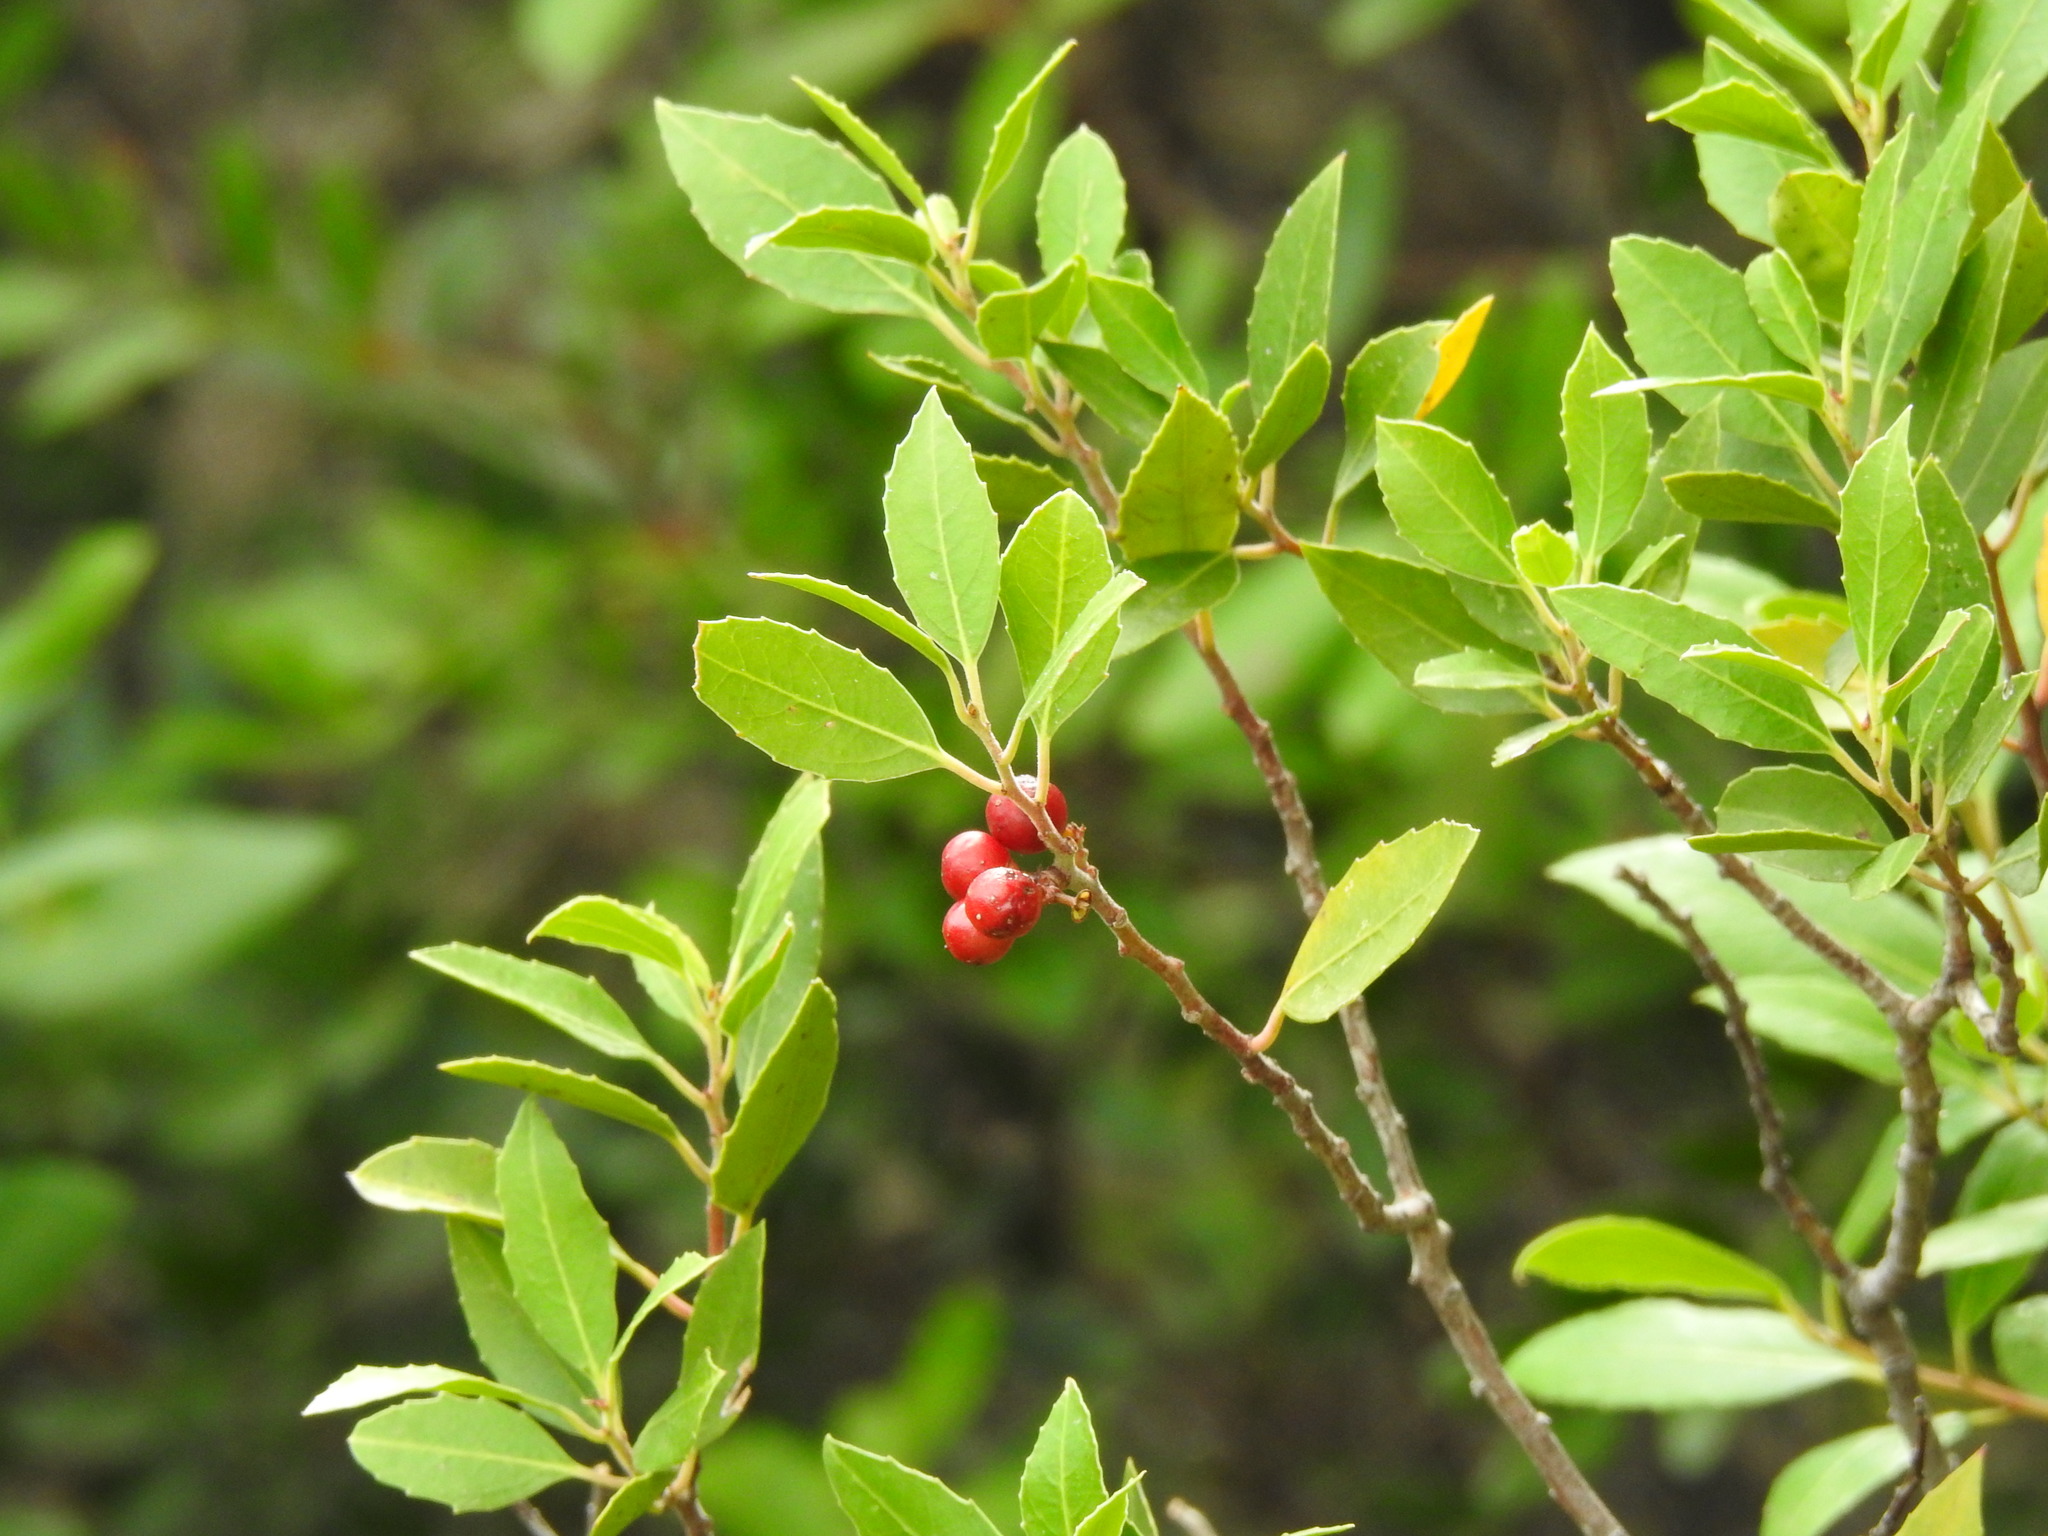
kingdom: Plantae
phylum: Tracheophyta
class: Magnoliopsida
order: Rosales
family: Rhamnaceae
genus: Rhamnus
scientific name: Rhamnus alaternus
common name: Mediterranean buckthorn
